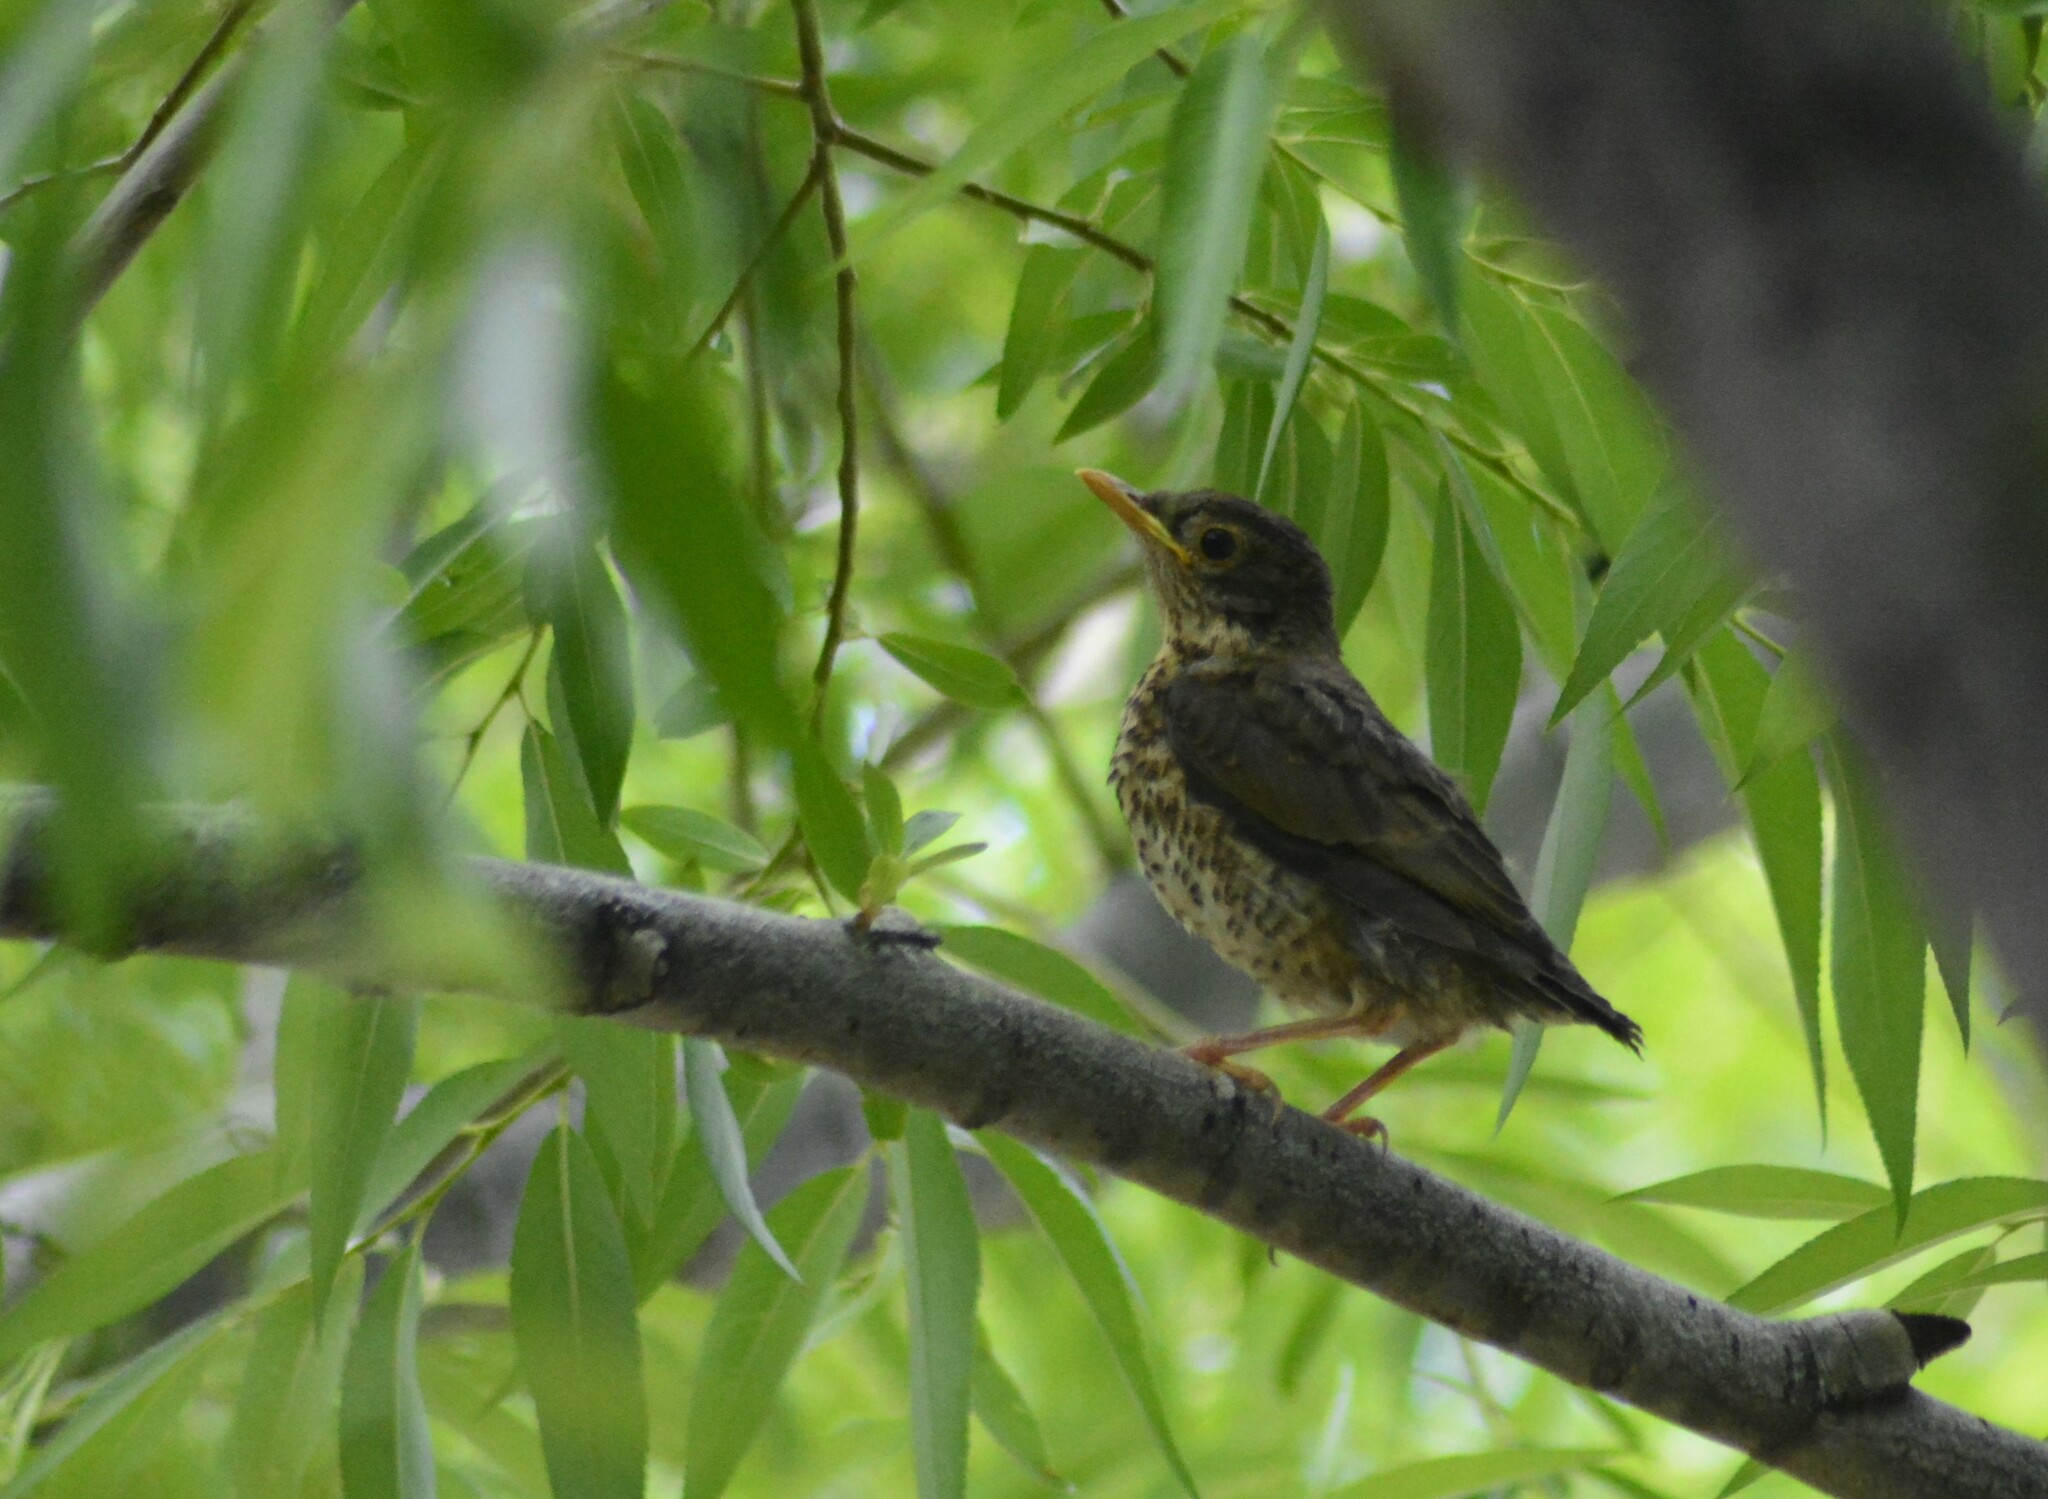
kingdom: Animalia
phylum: Chordata
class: Aves
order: Passeriformes
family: Turdidae
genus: Turdus
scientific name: Turdus falcklandii
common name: Austral thrush
